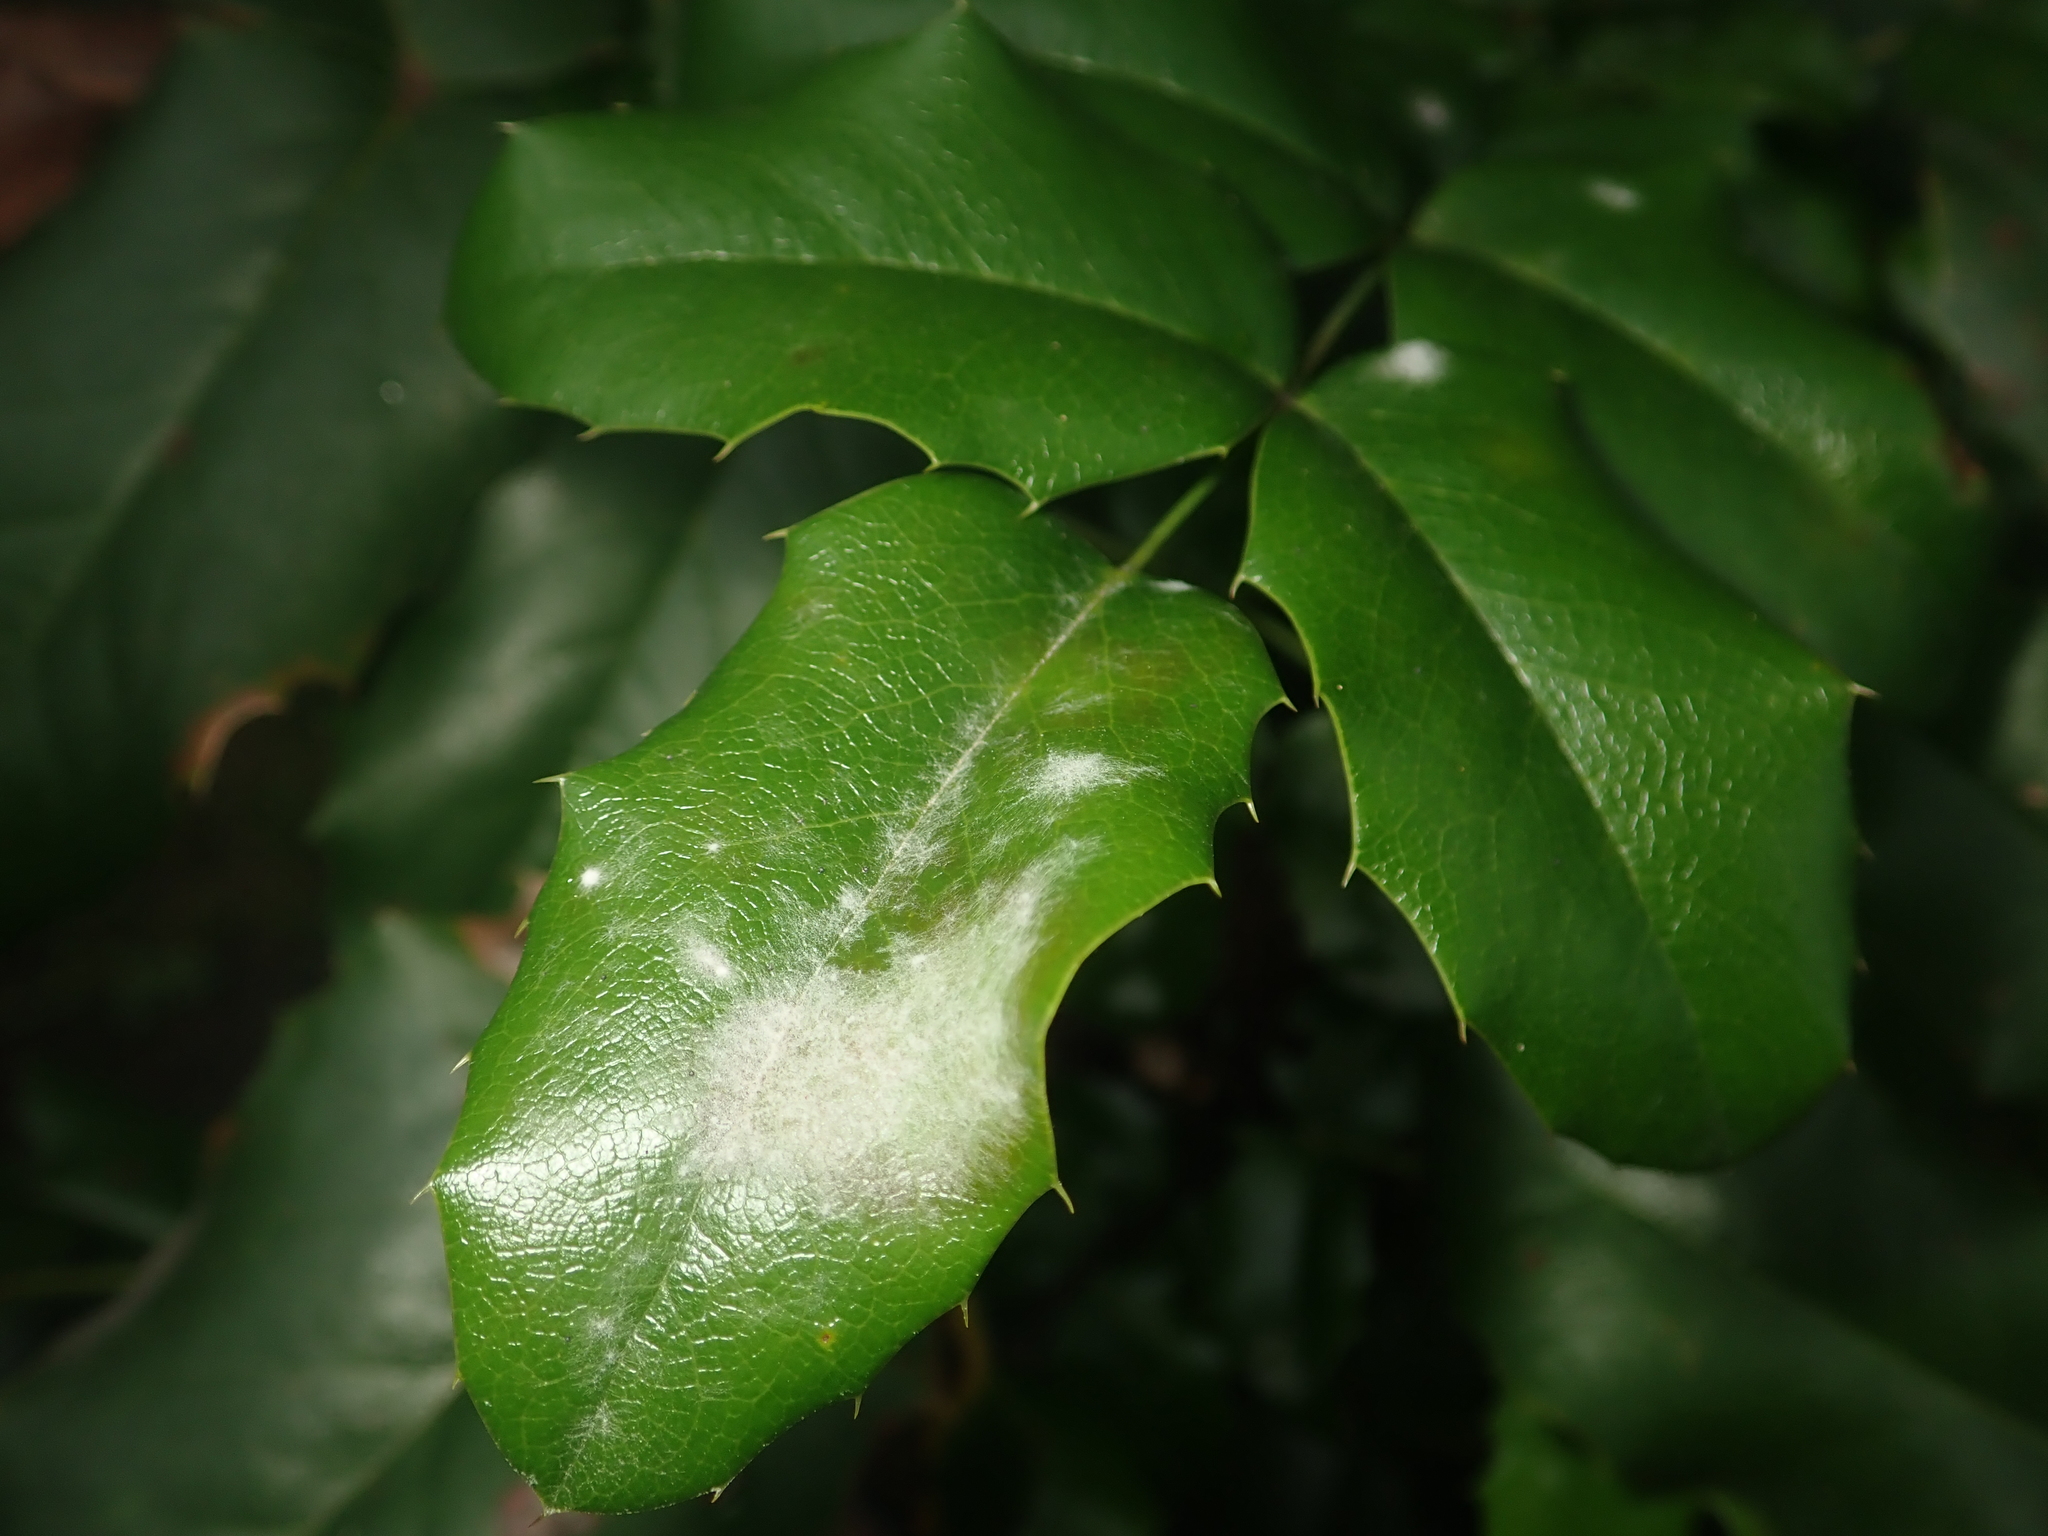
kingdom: Fungi
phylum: Ascomycota
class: Leotiomycetes
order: Helotiales
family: Erysiphaceae
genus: Erysiphe
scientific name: Erysiphe berberidis
